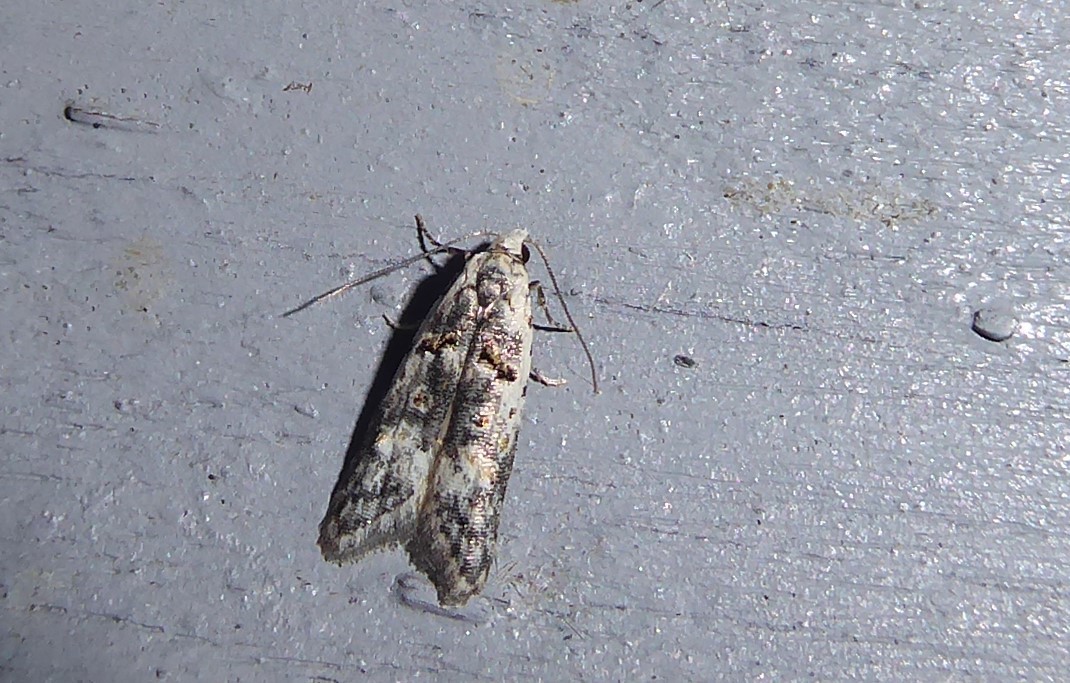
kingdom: Animalia
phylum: Arthropoda
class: Insecta
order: Lepidoptera
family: Carposinidae
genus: Carposina
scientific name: Carposina
